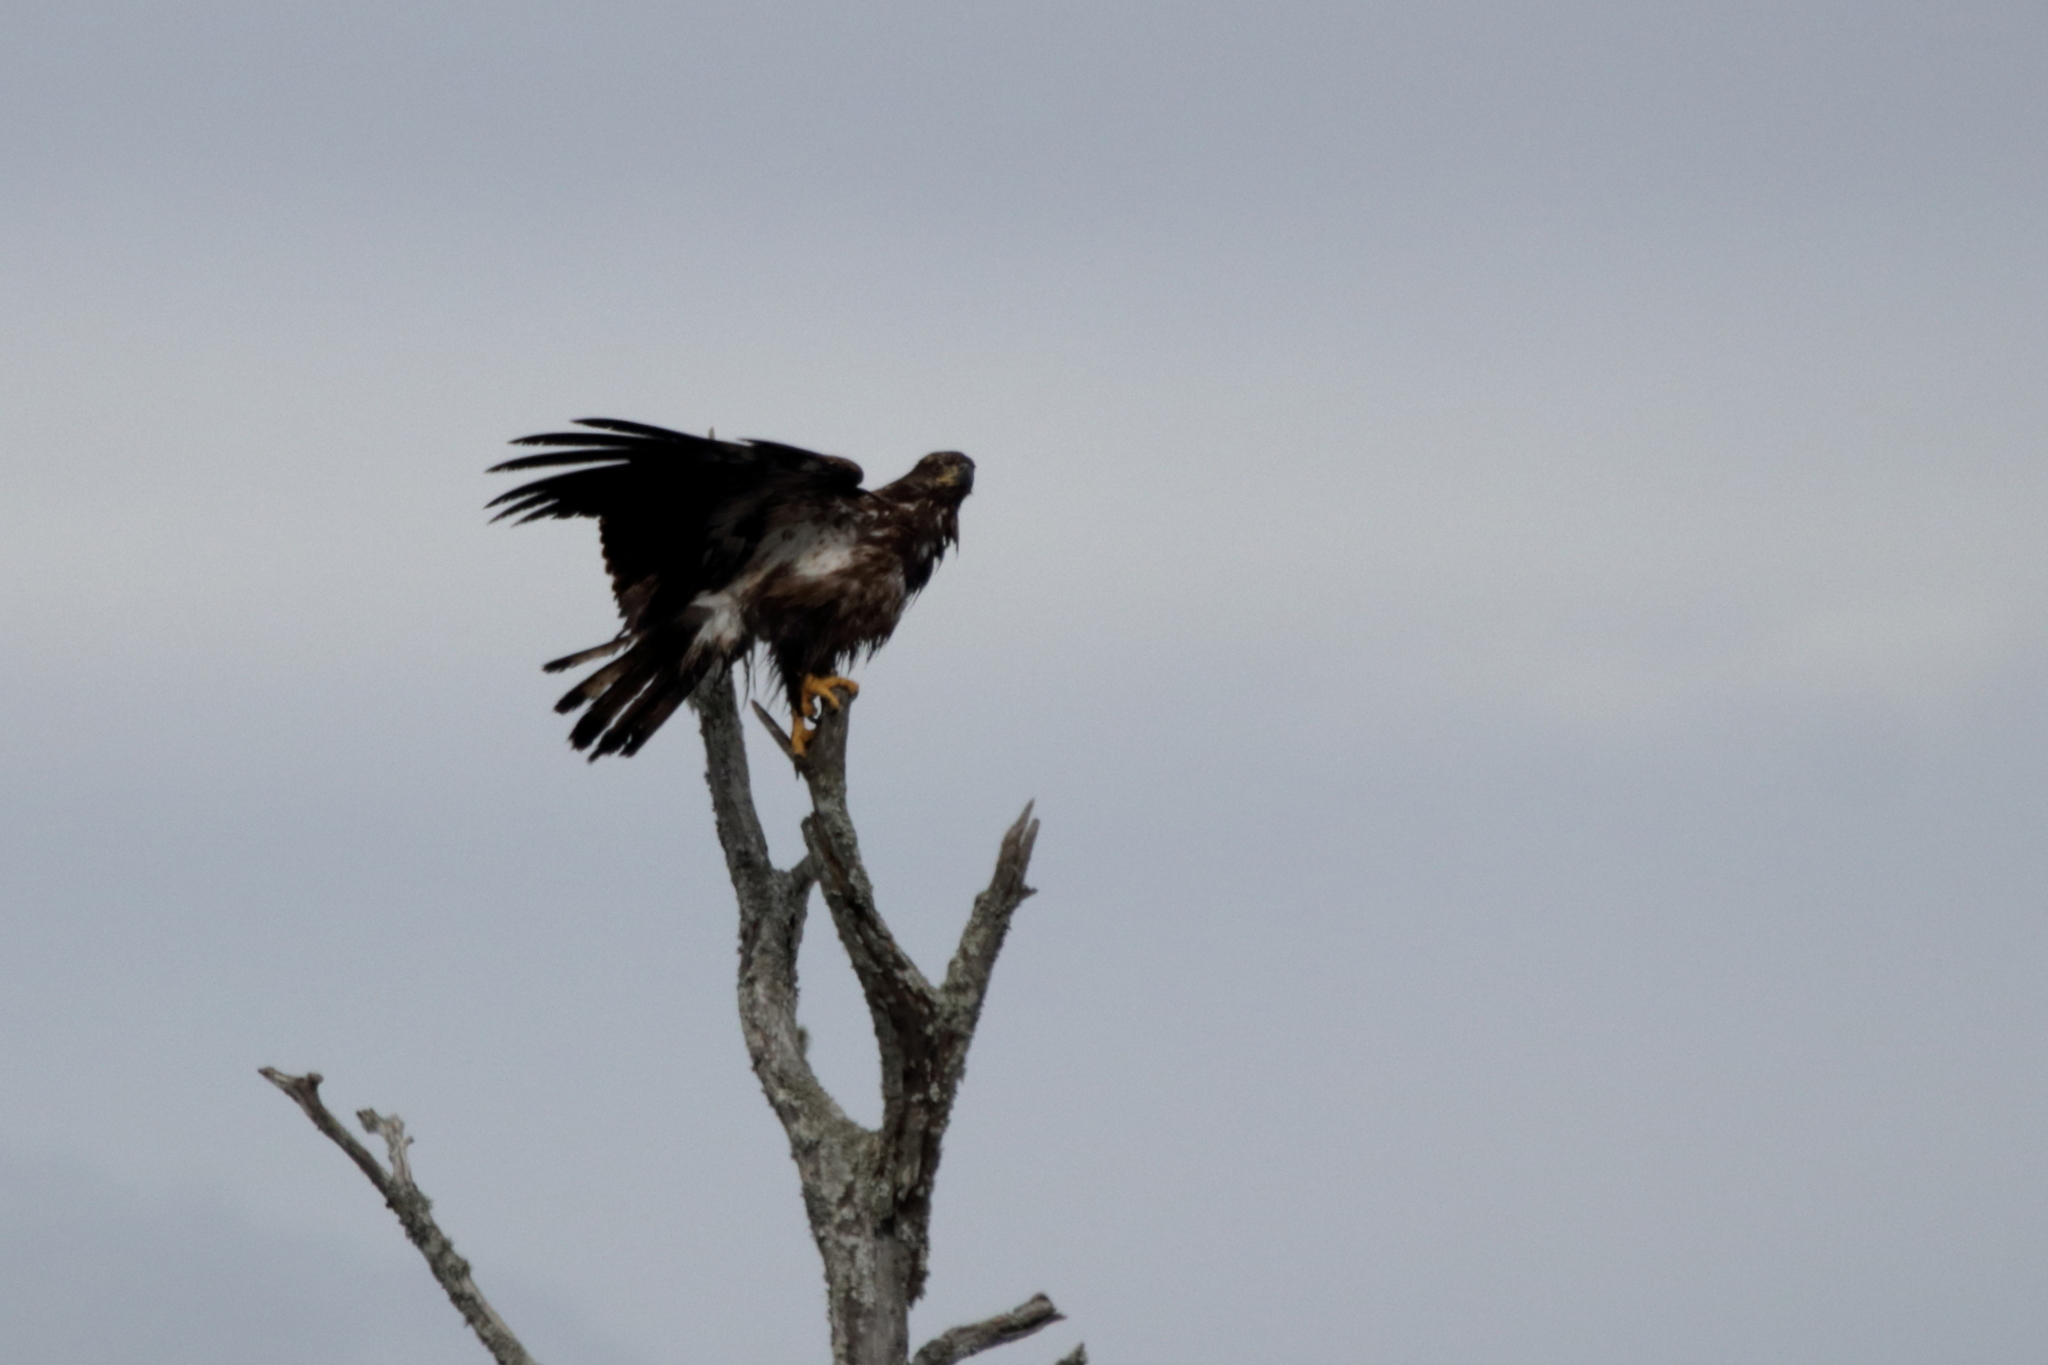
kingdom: Animalia
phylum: Chordata
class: Aves
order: Accipitriformes
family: Accipitridae
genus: Haliaeetus
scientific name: Haliaeetus leucocephalus
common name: Bald eagle
